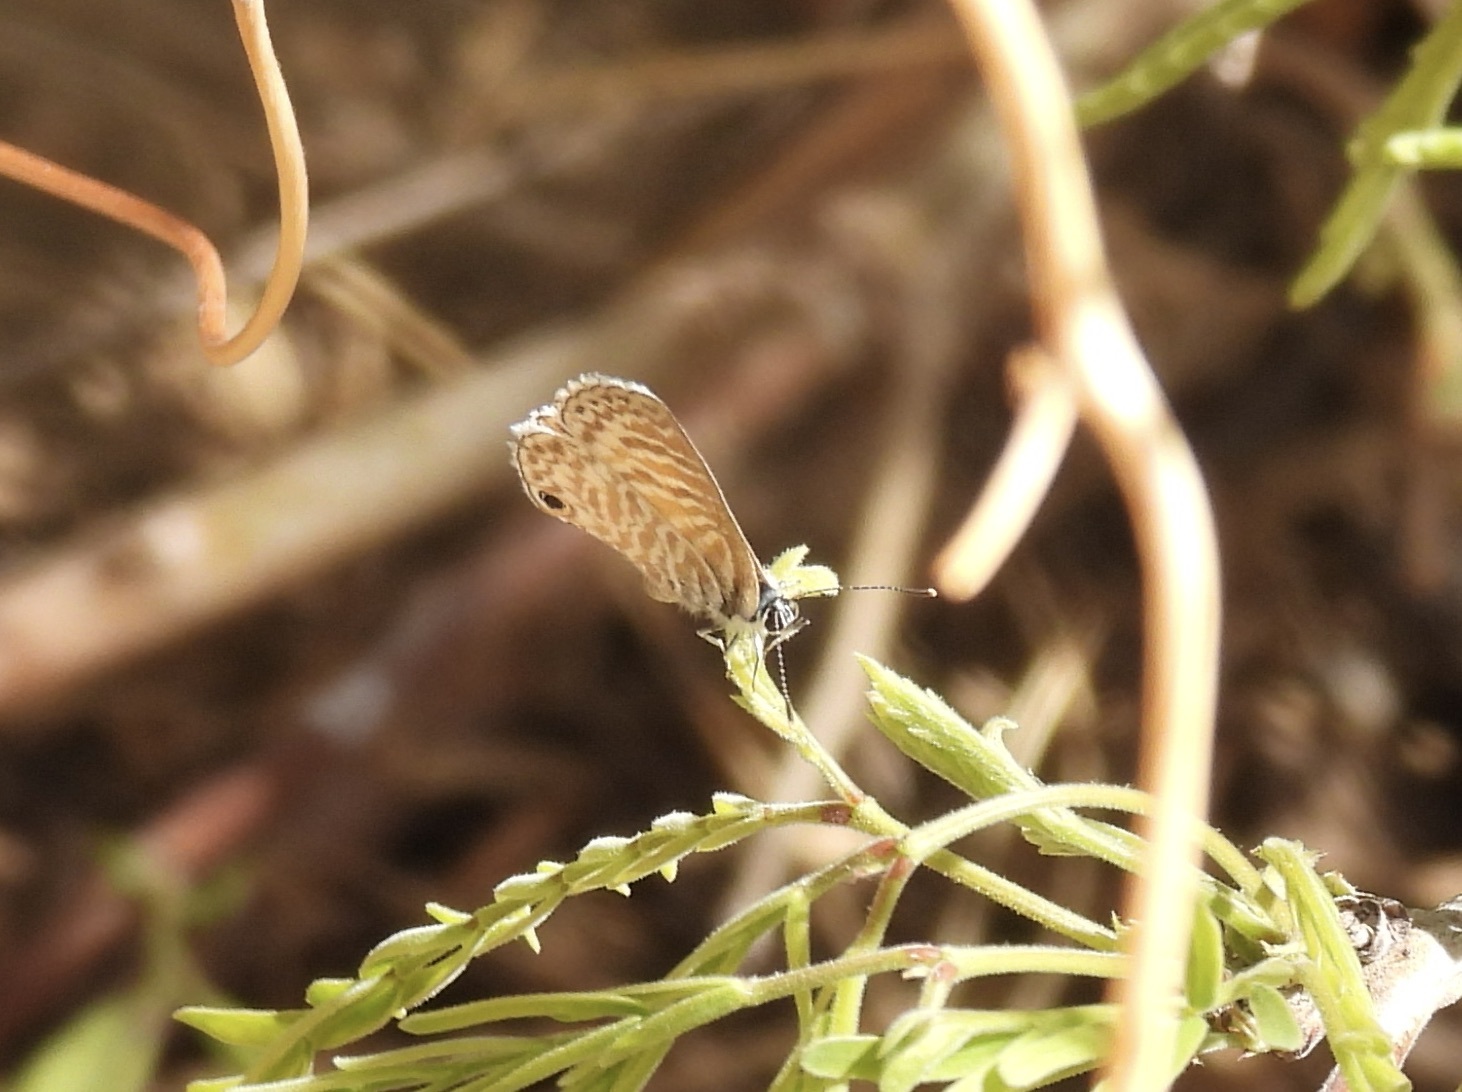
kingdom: Animalia
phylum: Arthropoda
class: Insecta
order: Lepidoptera
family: Lycaenidae
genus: Leptotes
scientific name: Leptotes marina
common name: Marine blue
